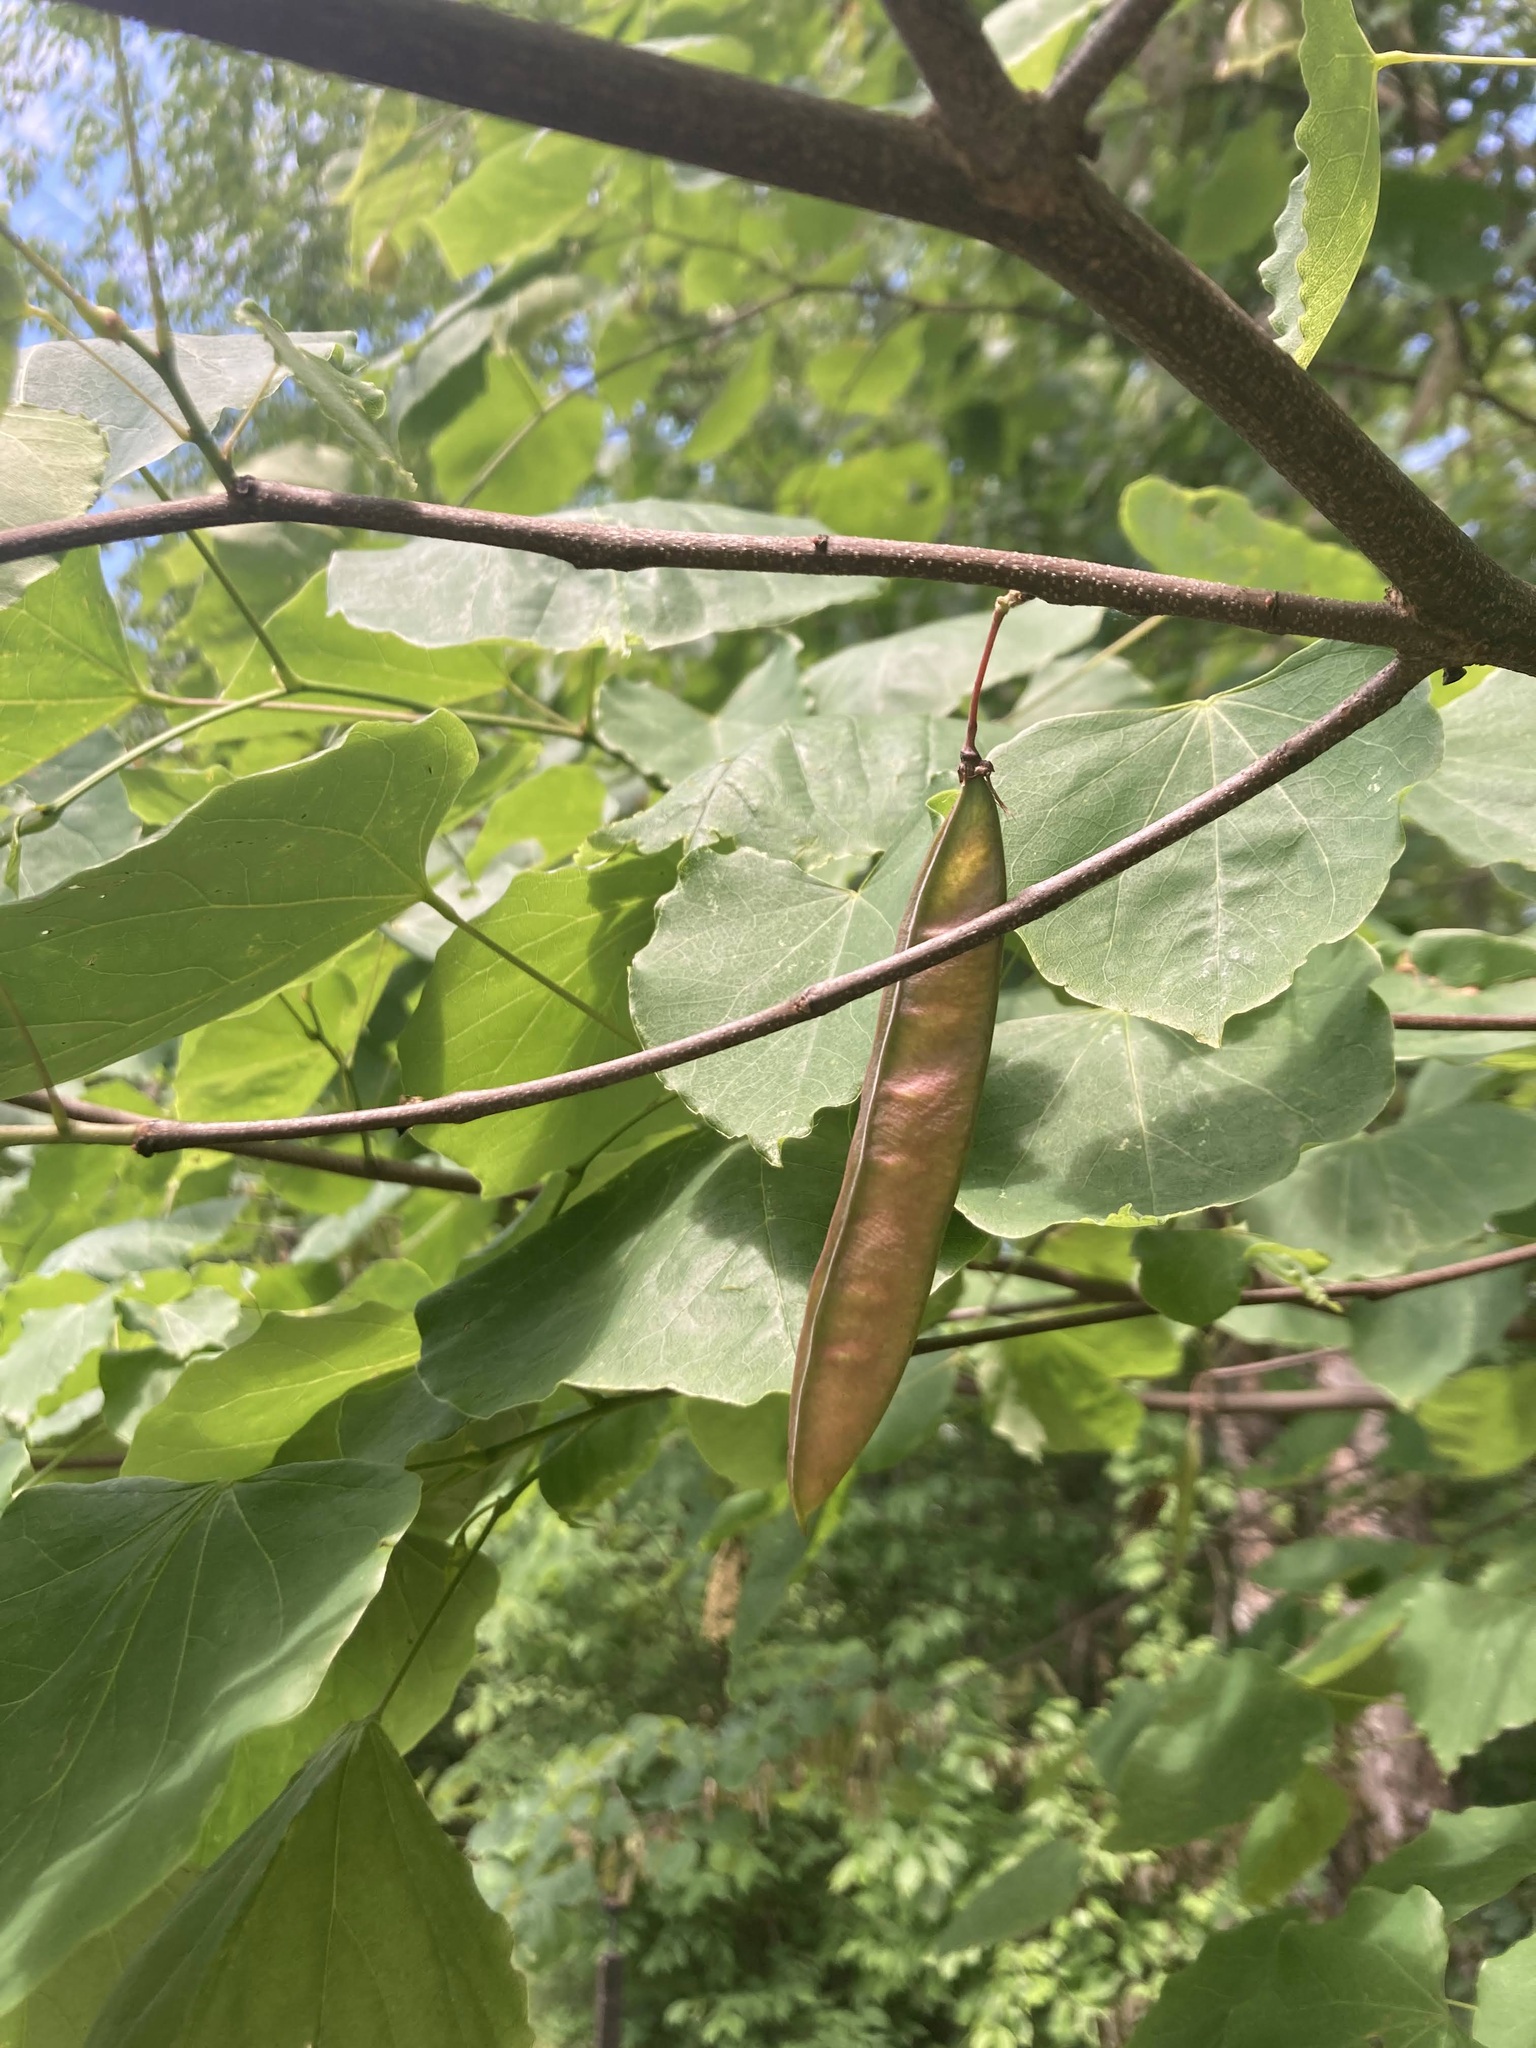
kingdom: Plantae
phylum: Tracheophyta
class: Magnoliopsida
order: Fabales
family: Fabaceae
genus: Cercis
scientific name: Cercis canadensis
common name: Eastern redbud
